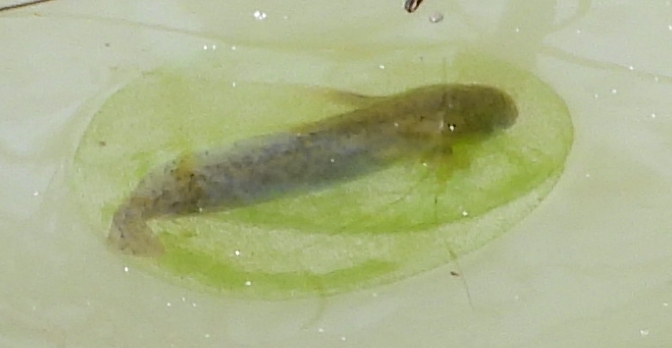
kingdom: Animalia
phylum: Chordata
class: Amphibia
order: Caudata
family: Ambystomatidae
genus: Ambystoma
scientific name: Ambystoma maculatum
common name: Spotted salamander
